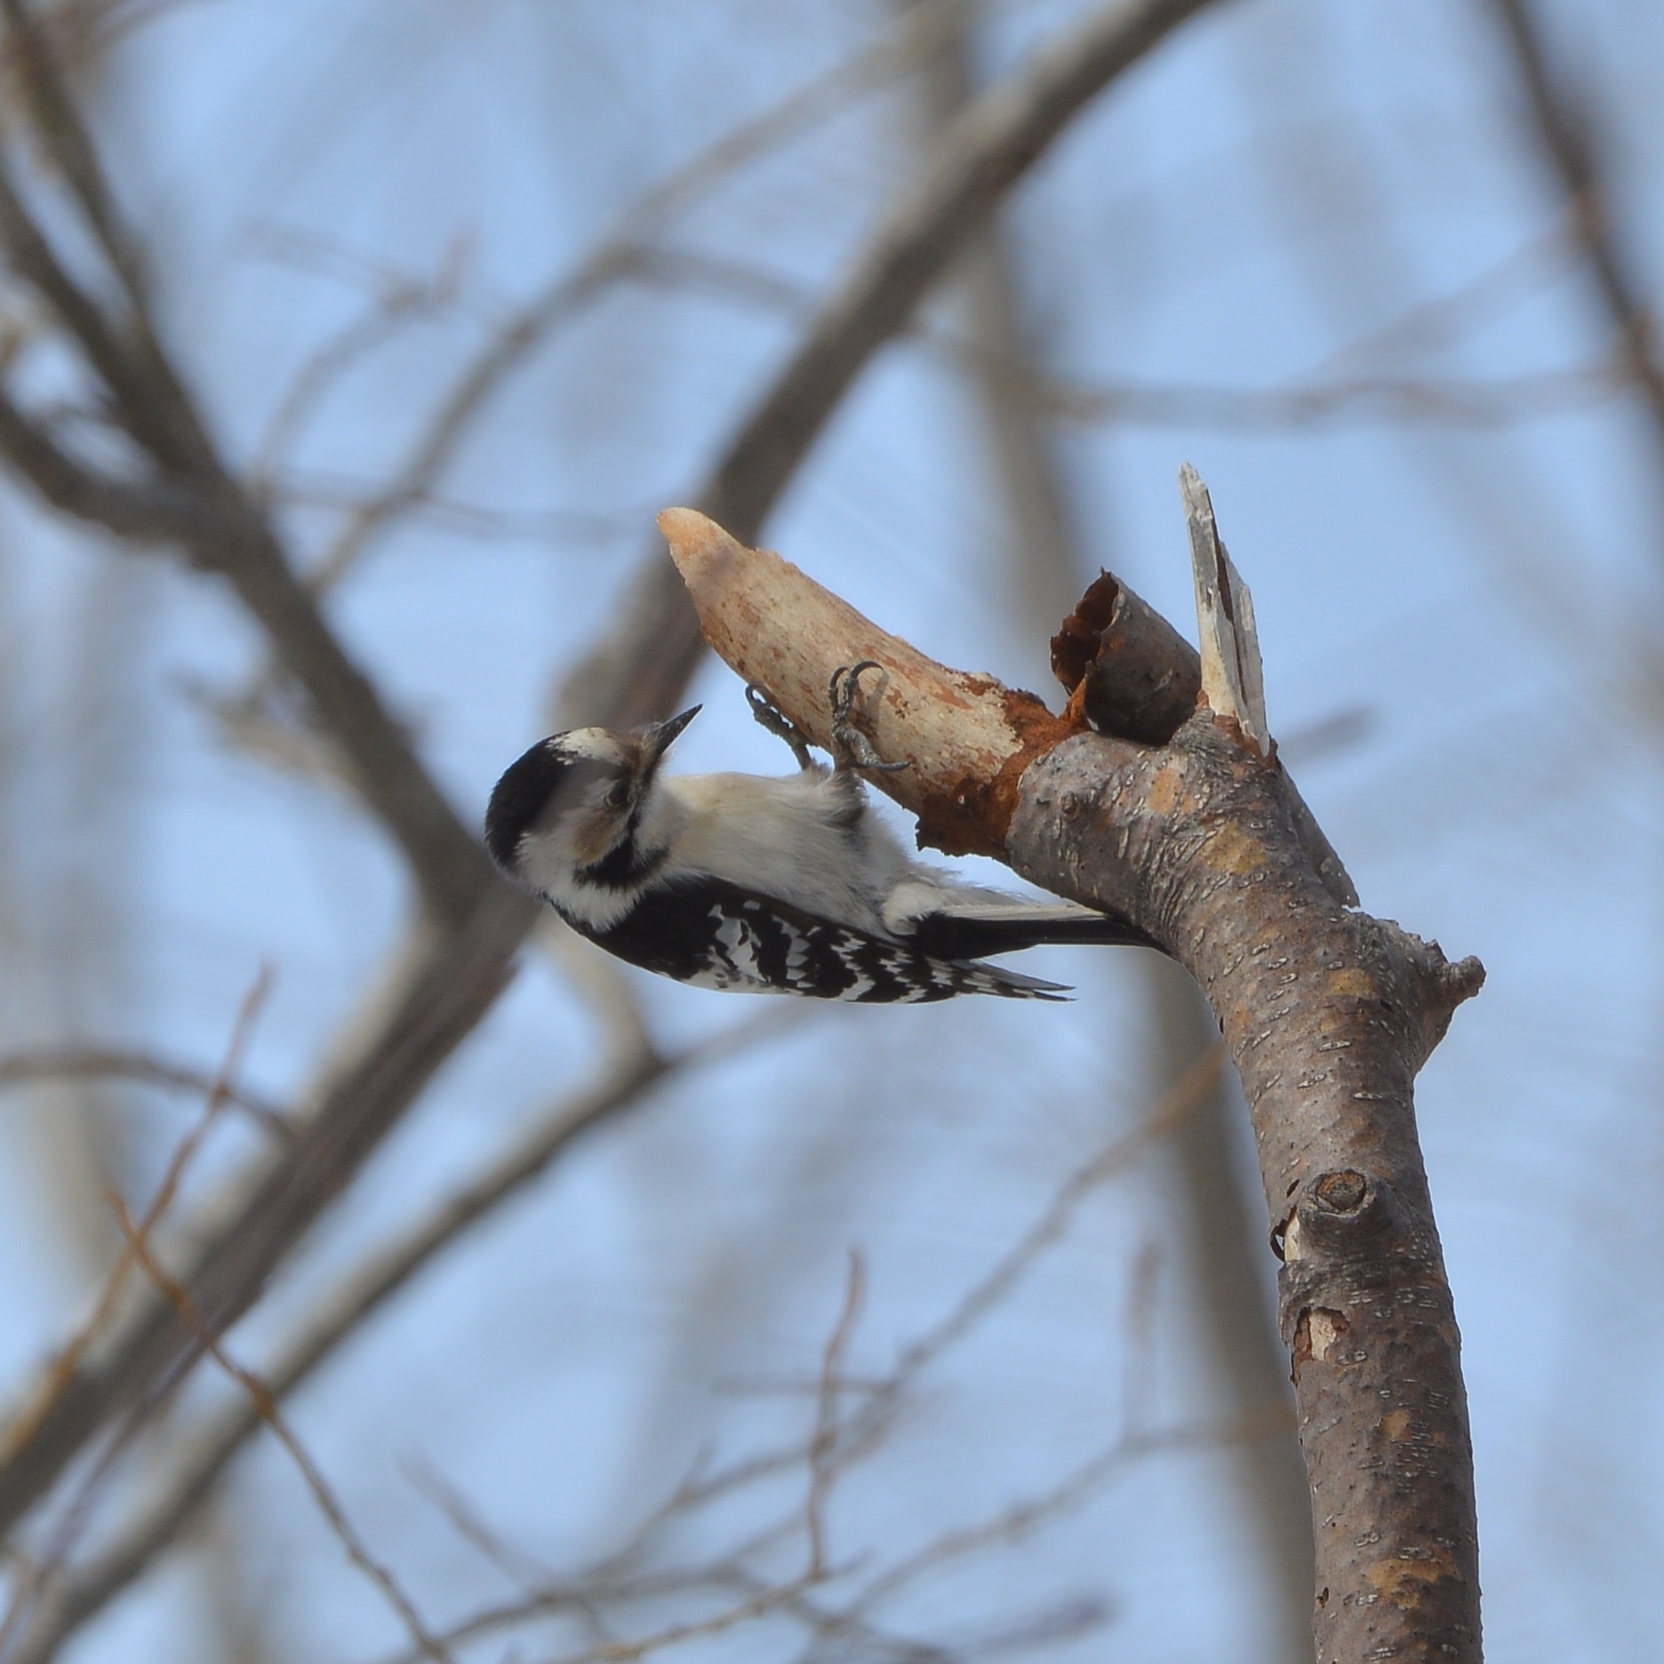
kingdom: Animalia
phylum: Chordata
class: Aves
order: Piciformes
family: Picidae
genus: Dryobates
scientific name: Dryobates minor
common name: Lesser spotted woodpecker
